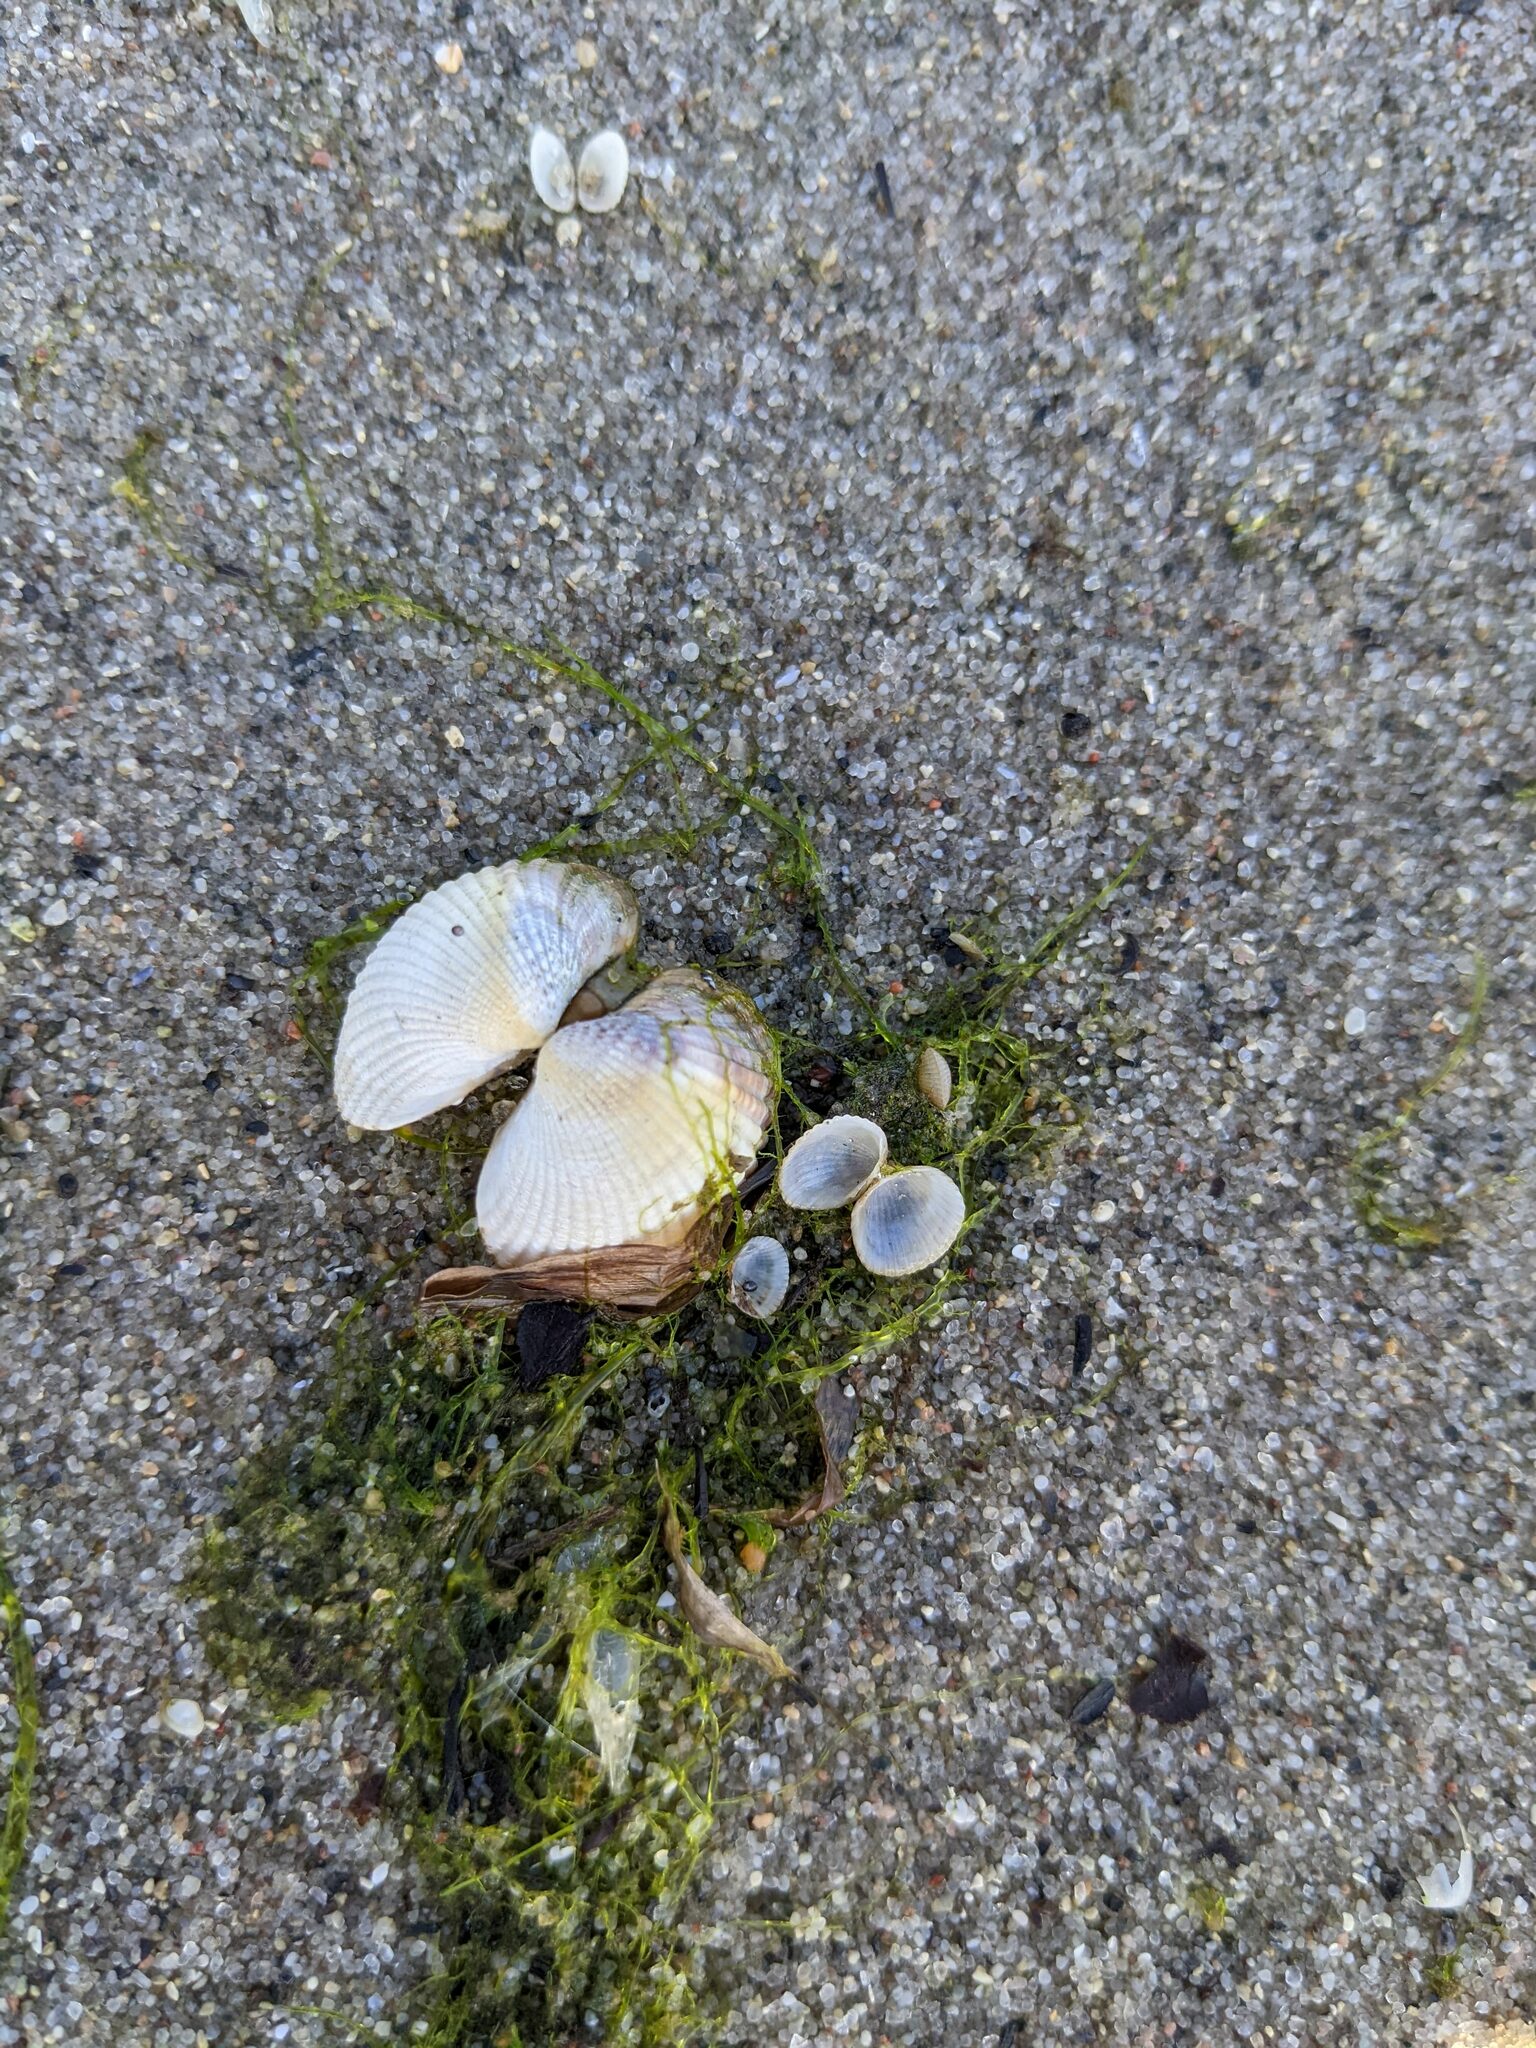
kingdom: Animalia
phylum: Mollusca
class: Bivalvia
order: Cardiida
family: Cardiidae
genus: Cerastoderma
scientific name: Cerastoderma edule
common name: Common cockle
